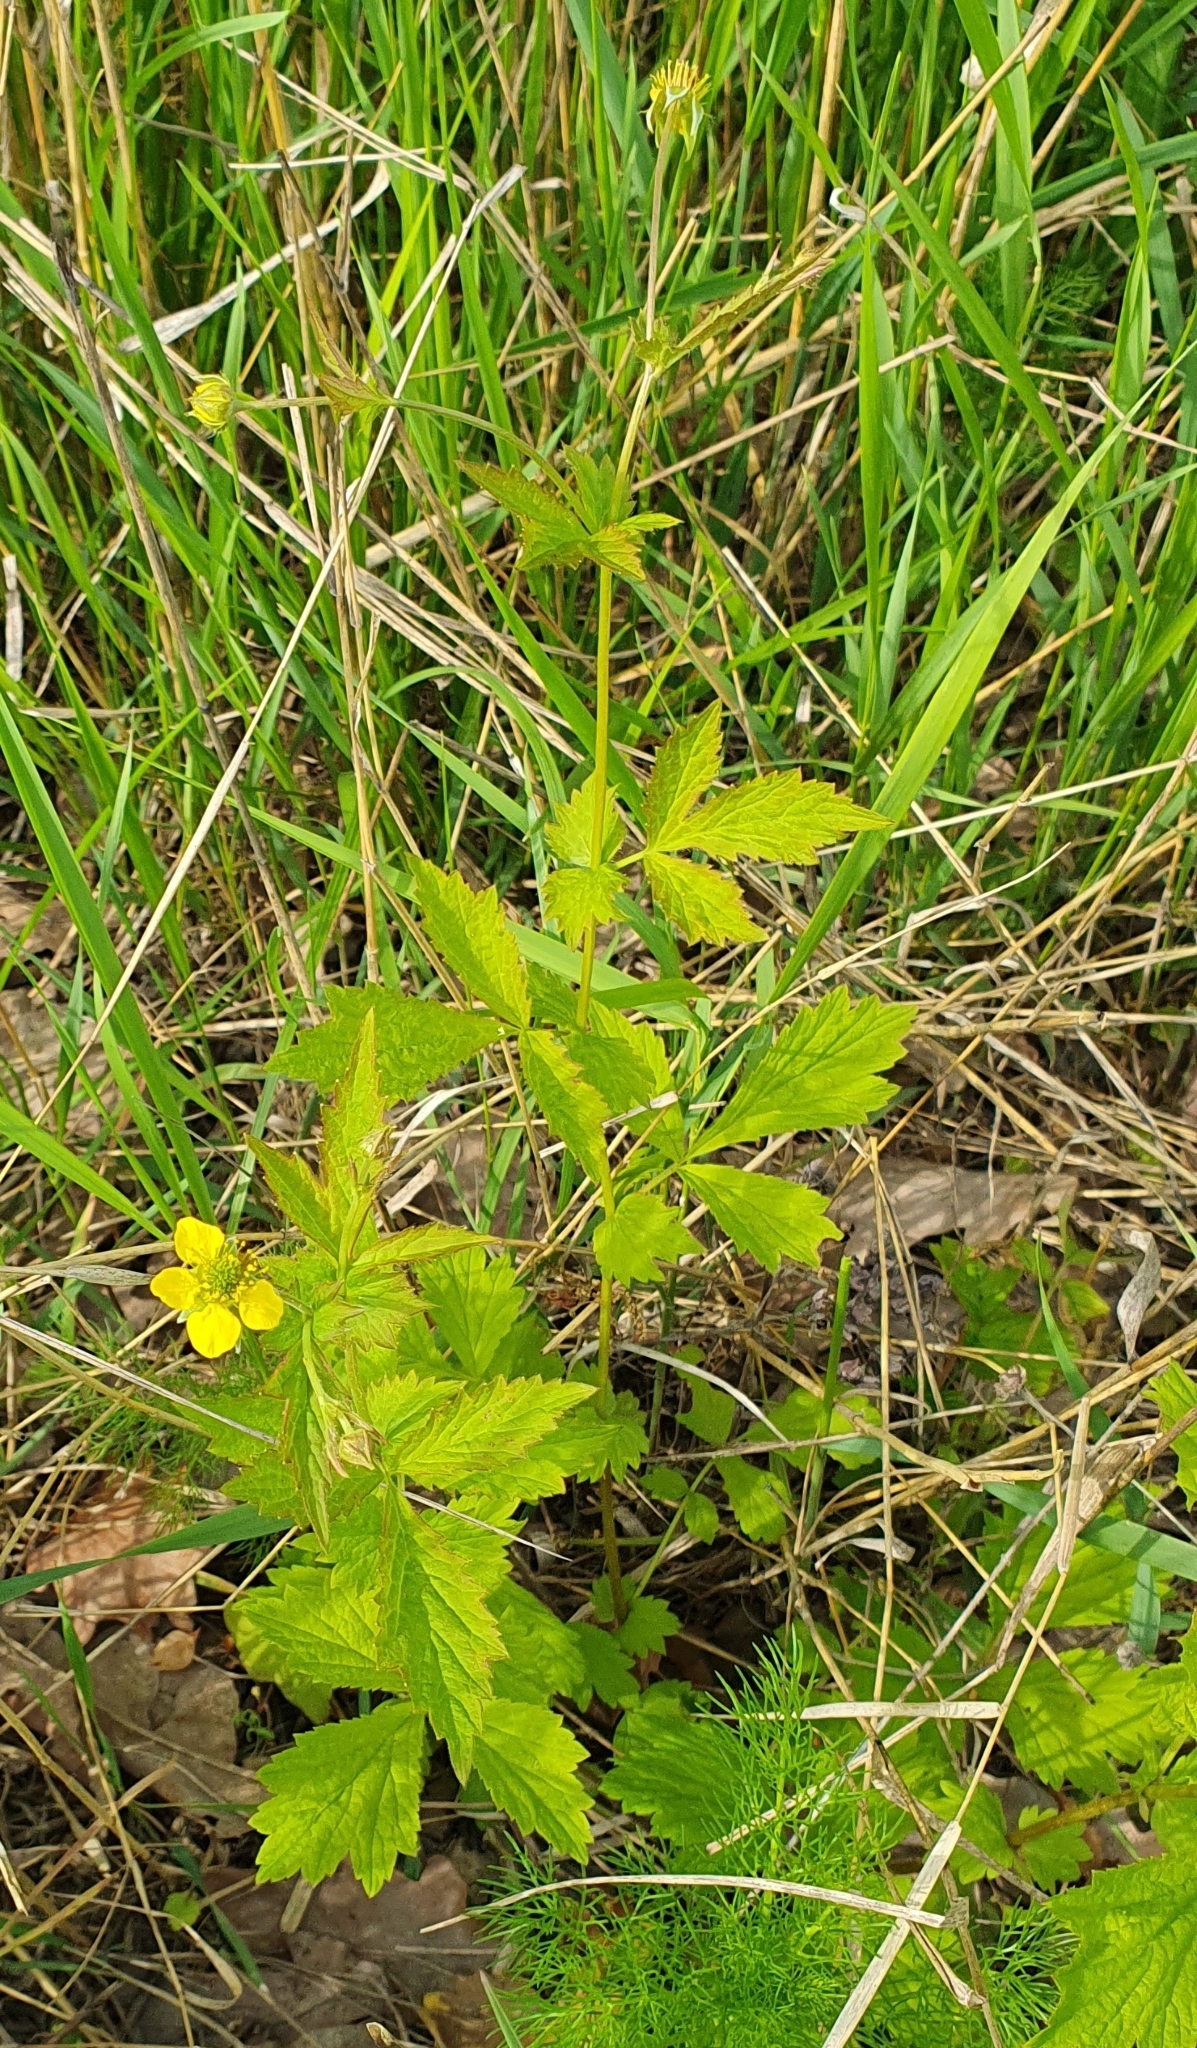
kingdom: Plantae
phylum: Tracheophyta
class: Magnoliopsida
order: Rosales
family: Rosaceae
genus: Geum
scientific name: Geum urbanum
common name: Wood avens
